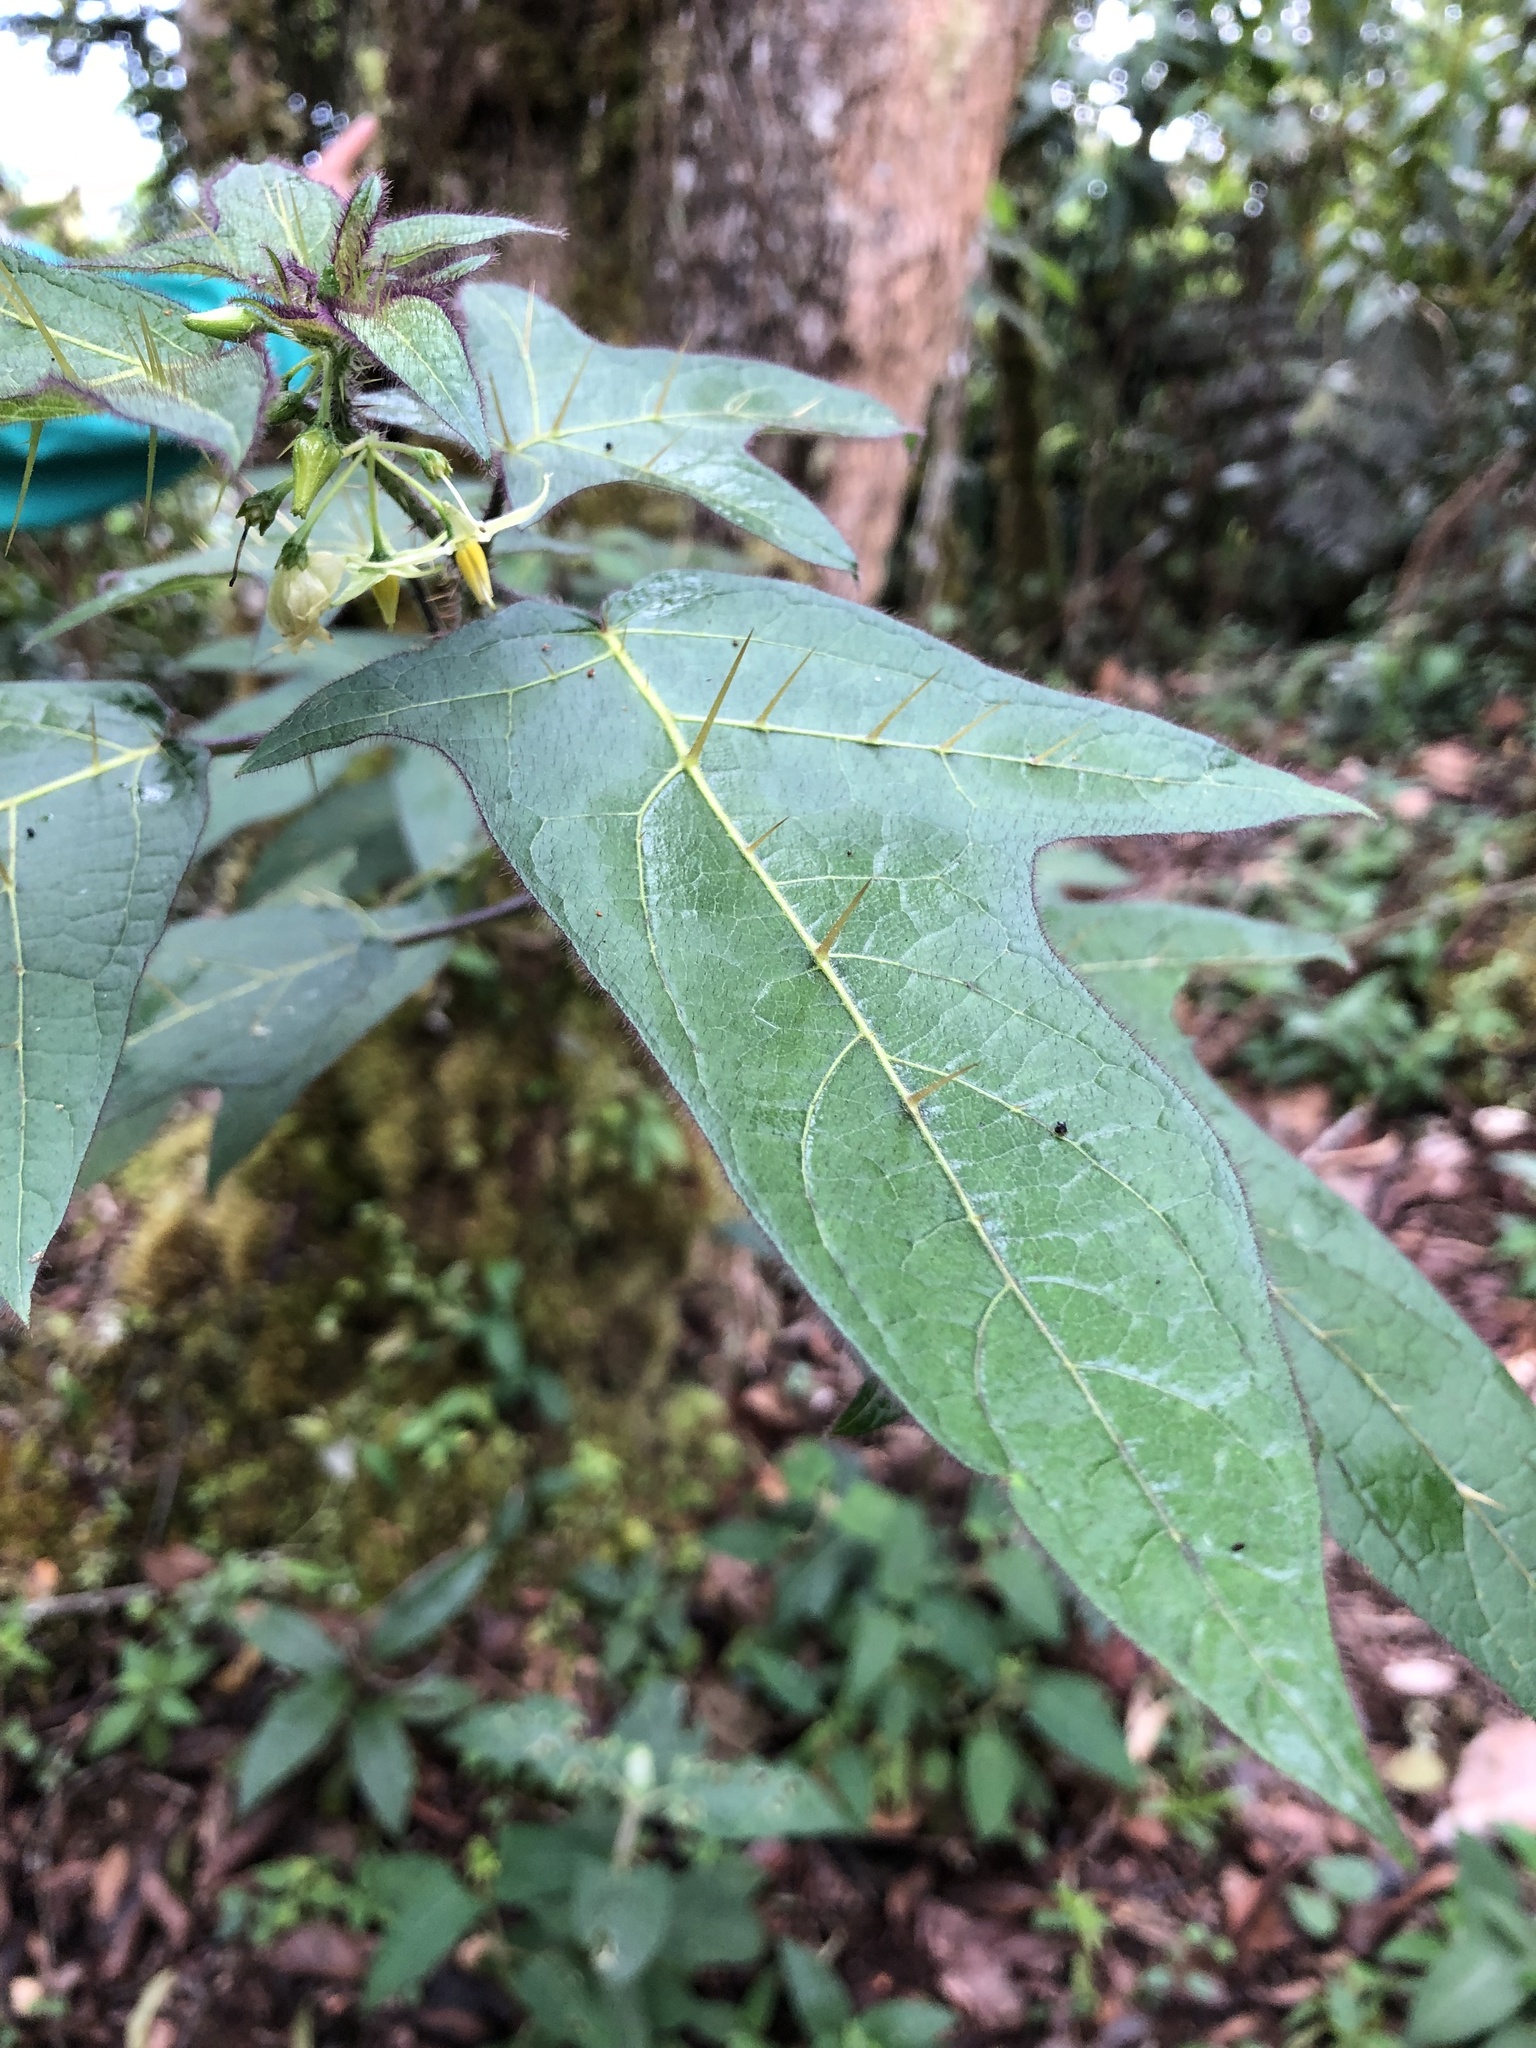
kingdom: Plantae
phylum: Tracheophyta
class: Magnoliopsida
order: Solanales
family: Solanaceae
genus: Solanum
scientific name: Solanum acerifolium
